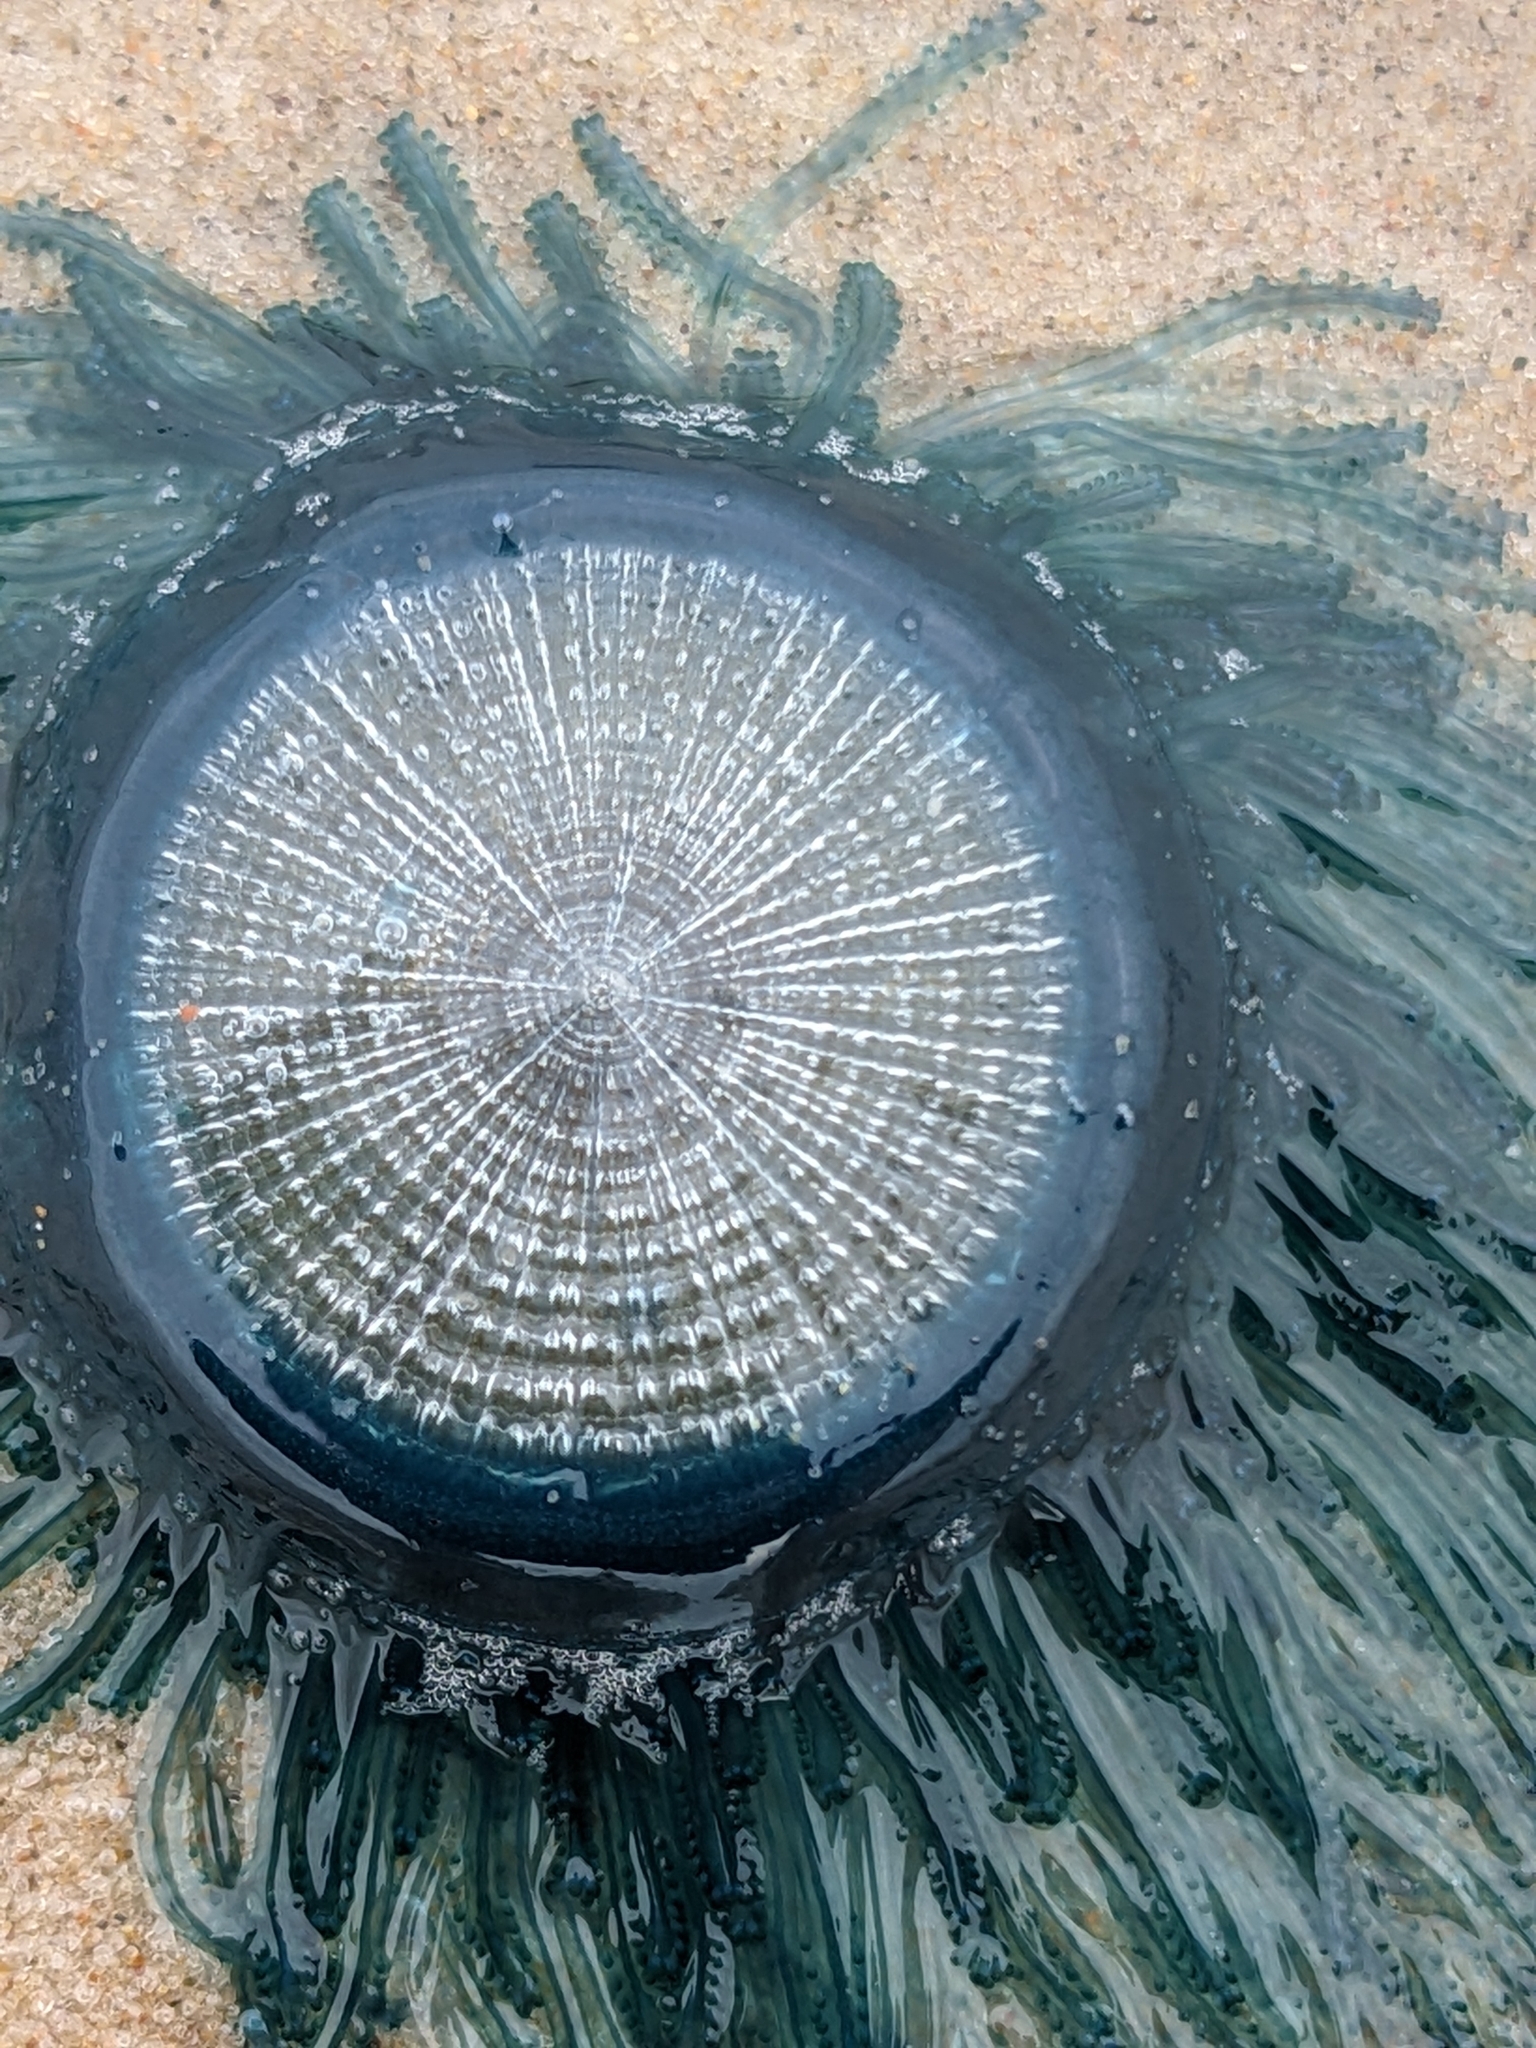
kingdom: Animalia
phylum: Cnidaria
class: Hydrozoa
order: Anthoathecata
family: Porpitidae
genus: Porpita
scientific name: Porpita porpita
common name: Blue button
